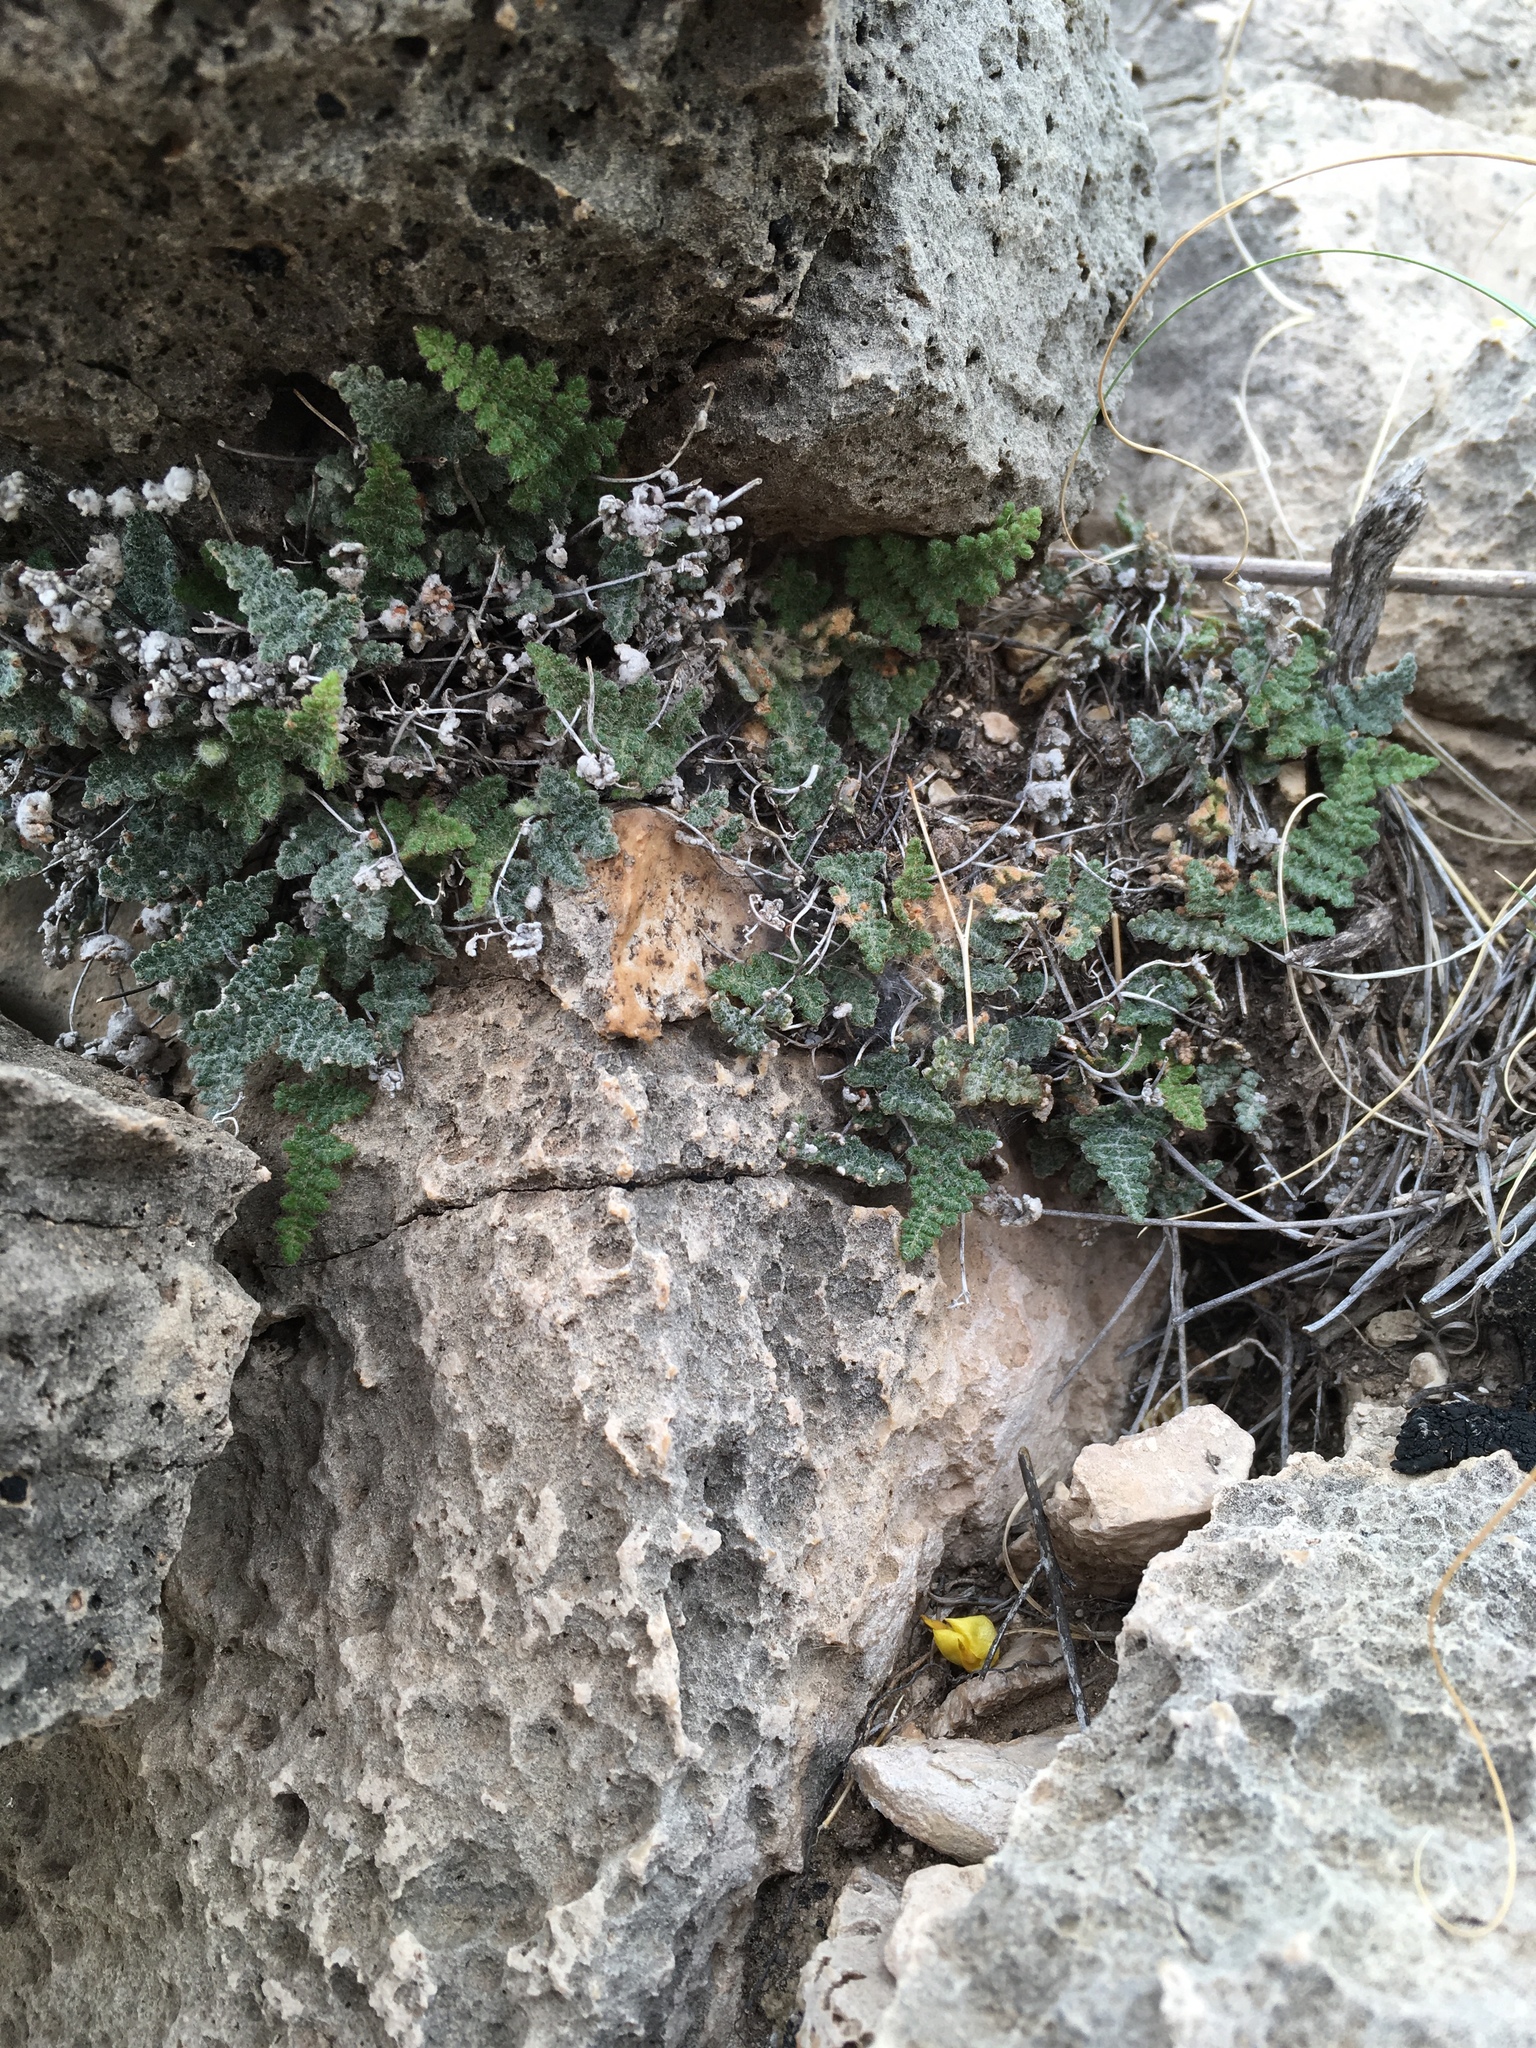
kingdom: Plantae
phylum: Tracheophyta
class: Polypodiopsida
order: Polypodiales
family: Pteridaceae
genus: Myriopteris
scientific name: Myriopteris gracilis
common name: Fee's lip fern
